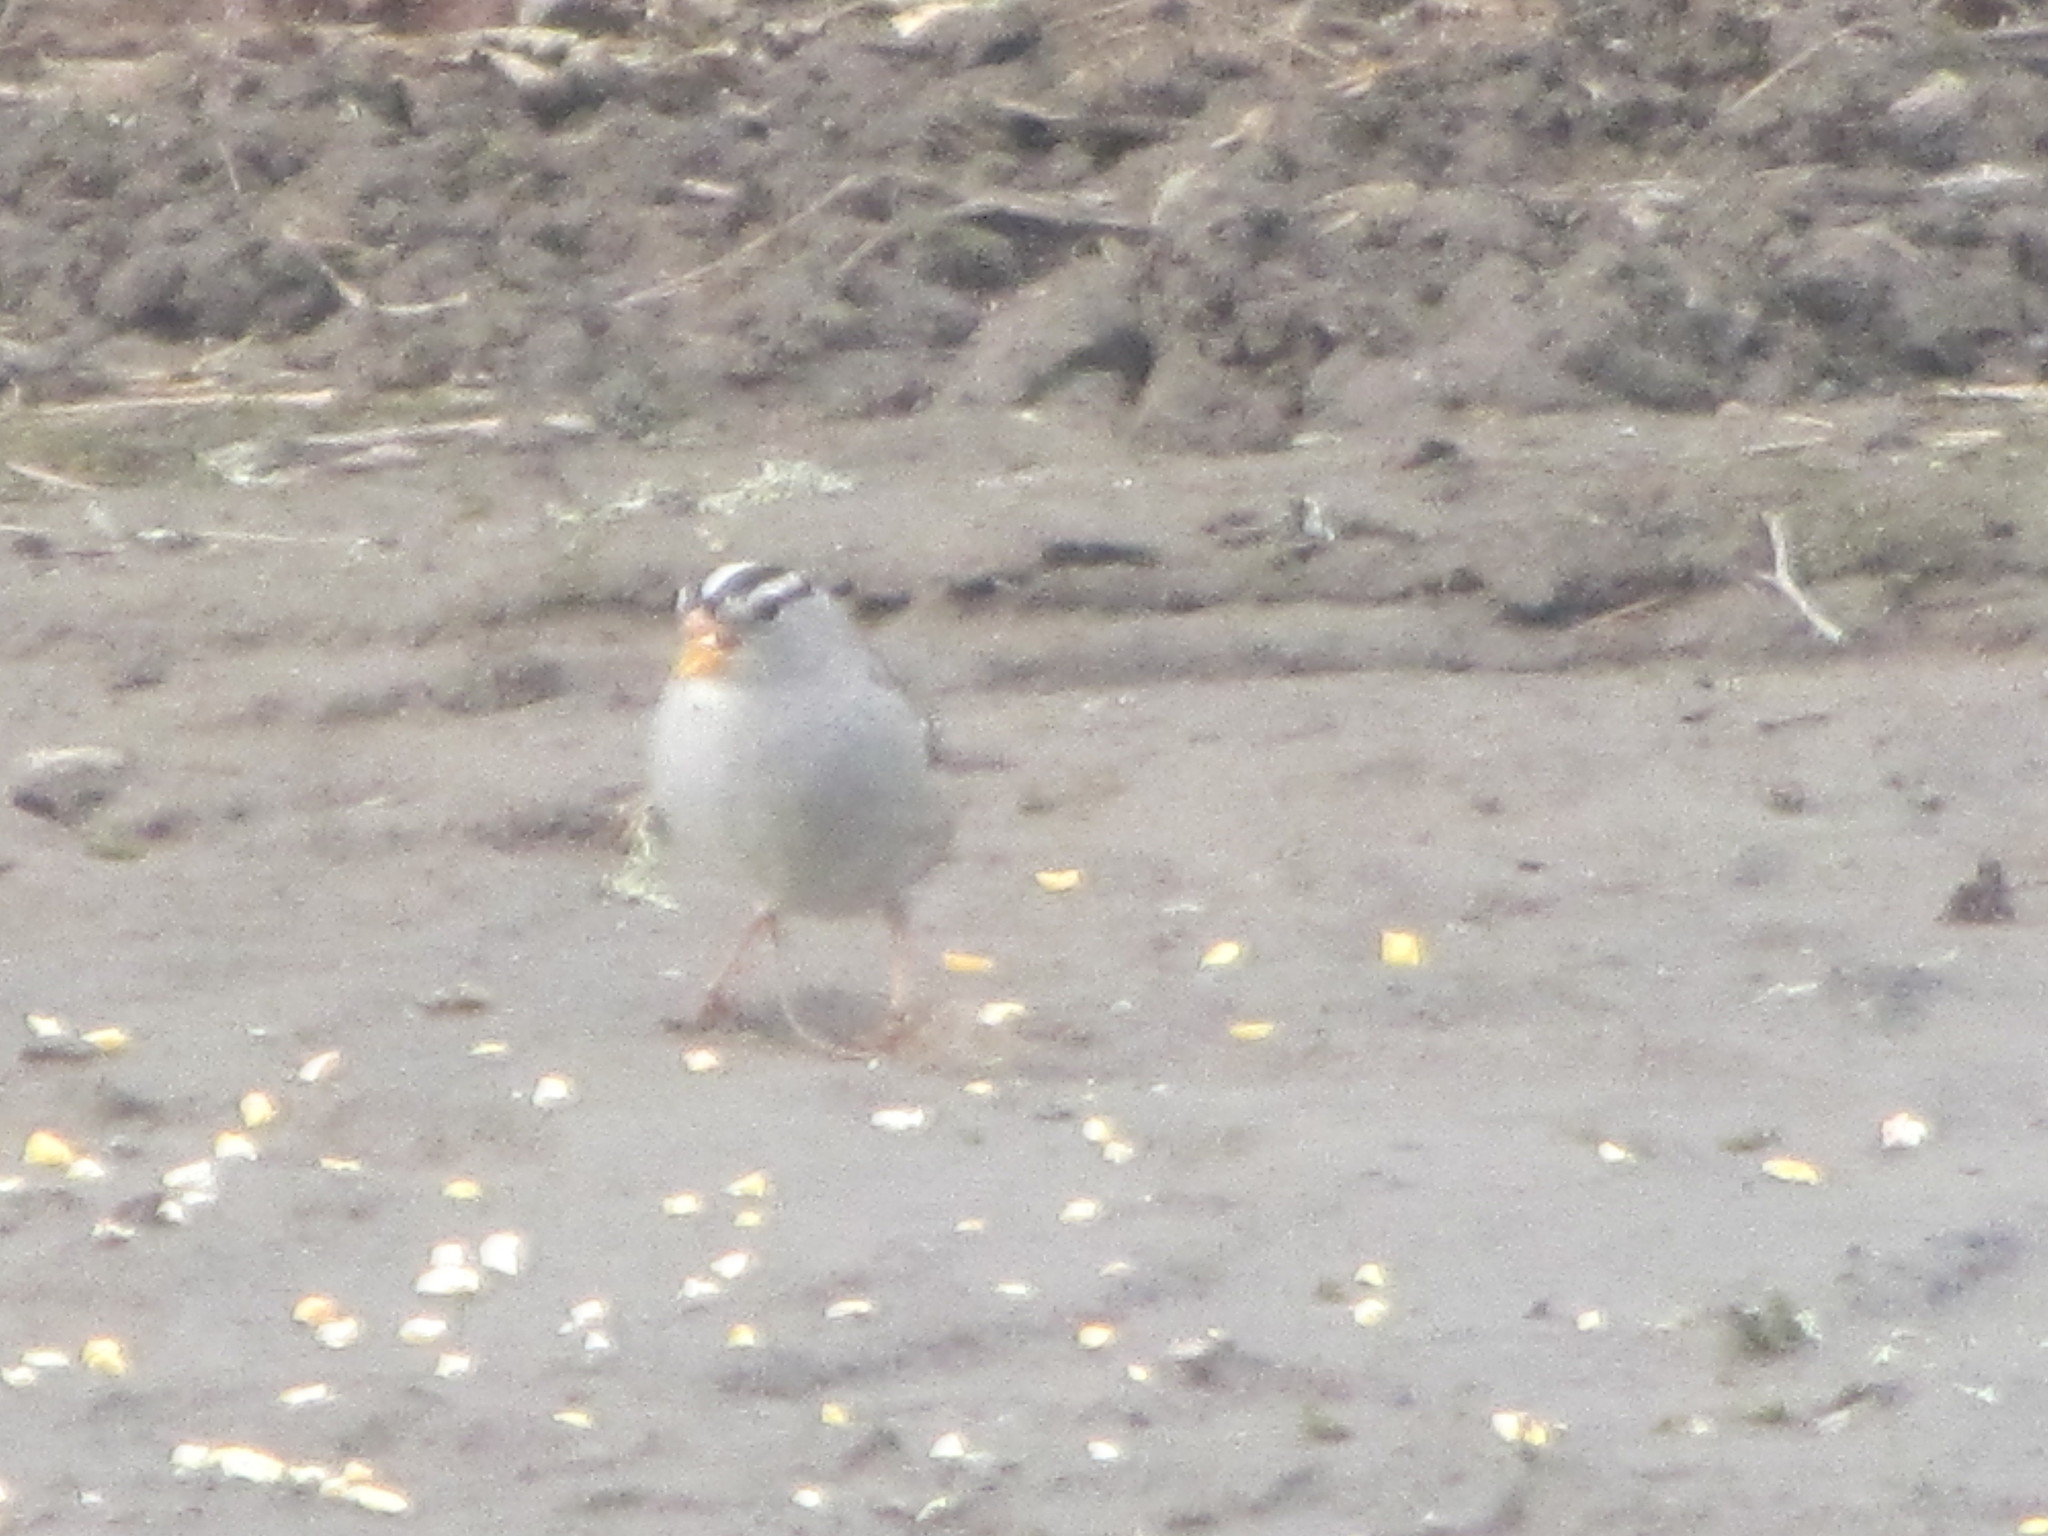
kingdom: Animalia
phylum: Chordata
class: Aves
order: Passeriformes
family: Passerellidae
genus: Zonotrichia
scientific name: Zonotrichia leucophrys
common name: White-crowned sparrow
